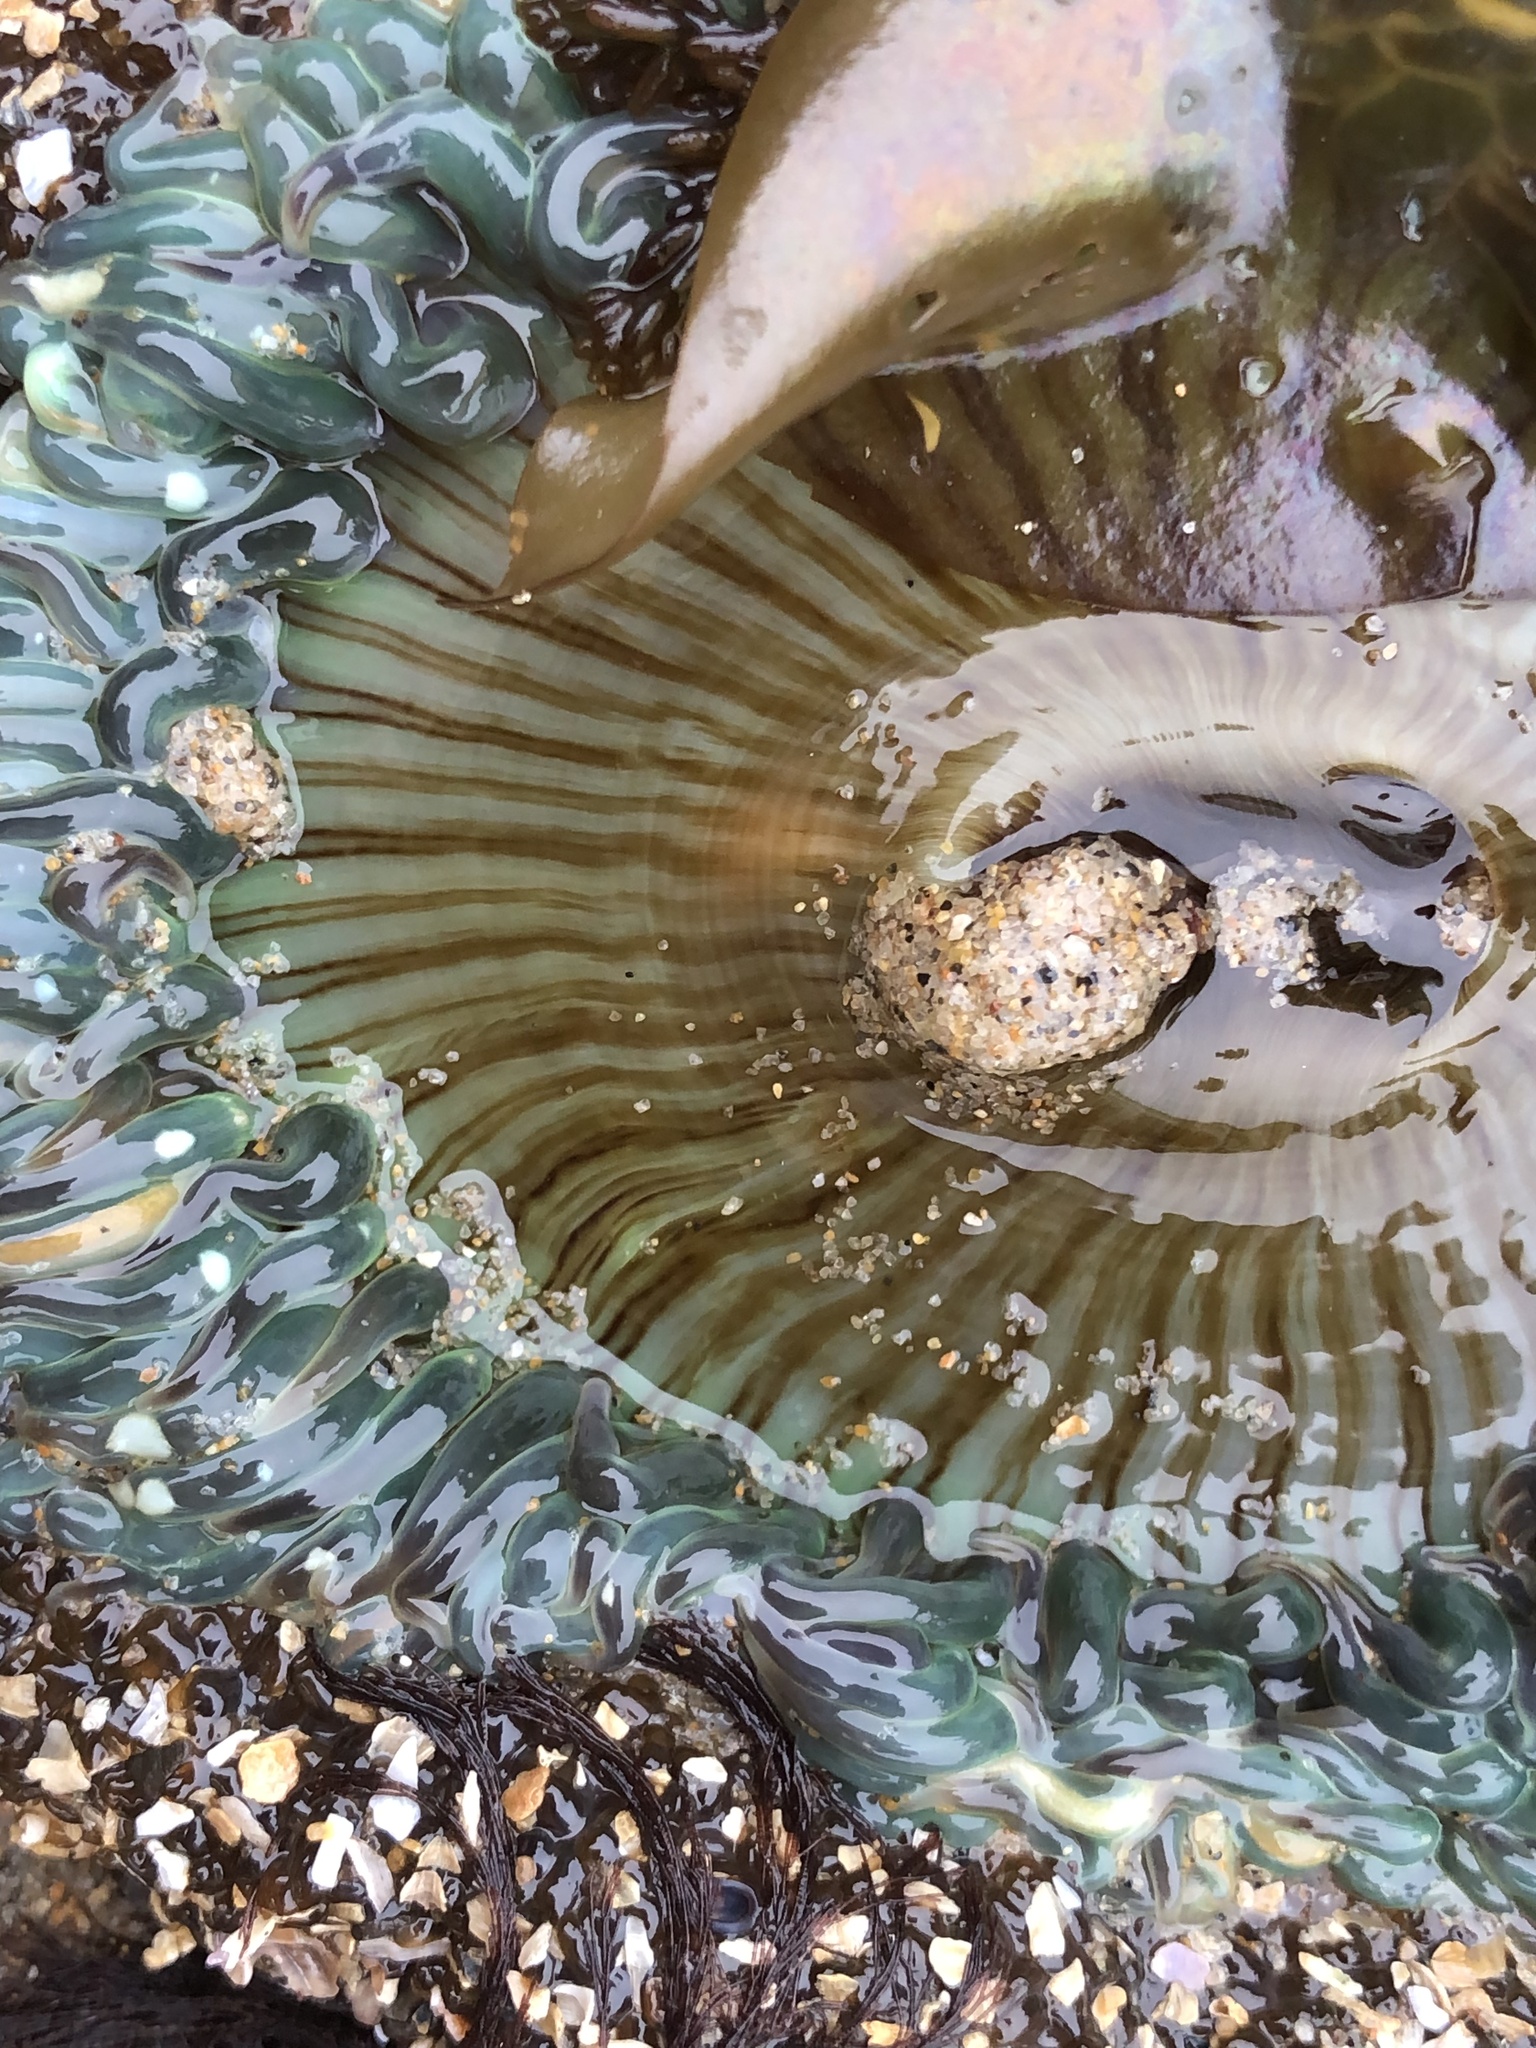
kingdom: Animalia
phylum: Cnidaria
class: Anthozoa
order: Actiniaria
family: Actiniidae
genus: Anthopleura
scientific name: Anthopleura sola
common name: Sun anemone
